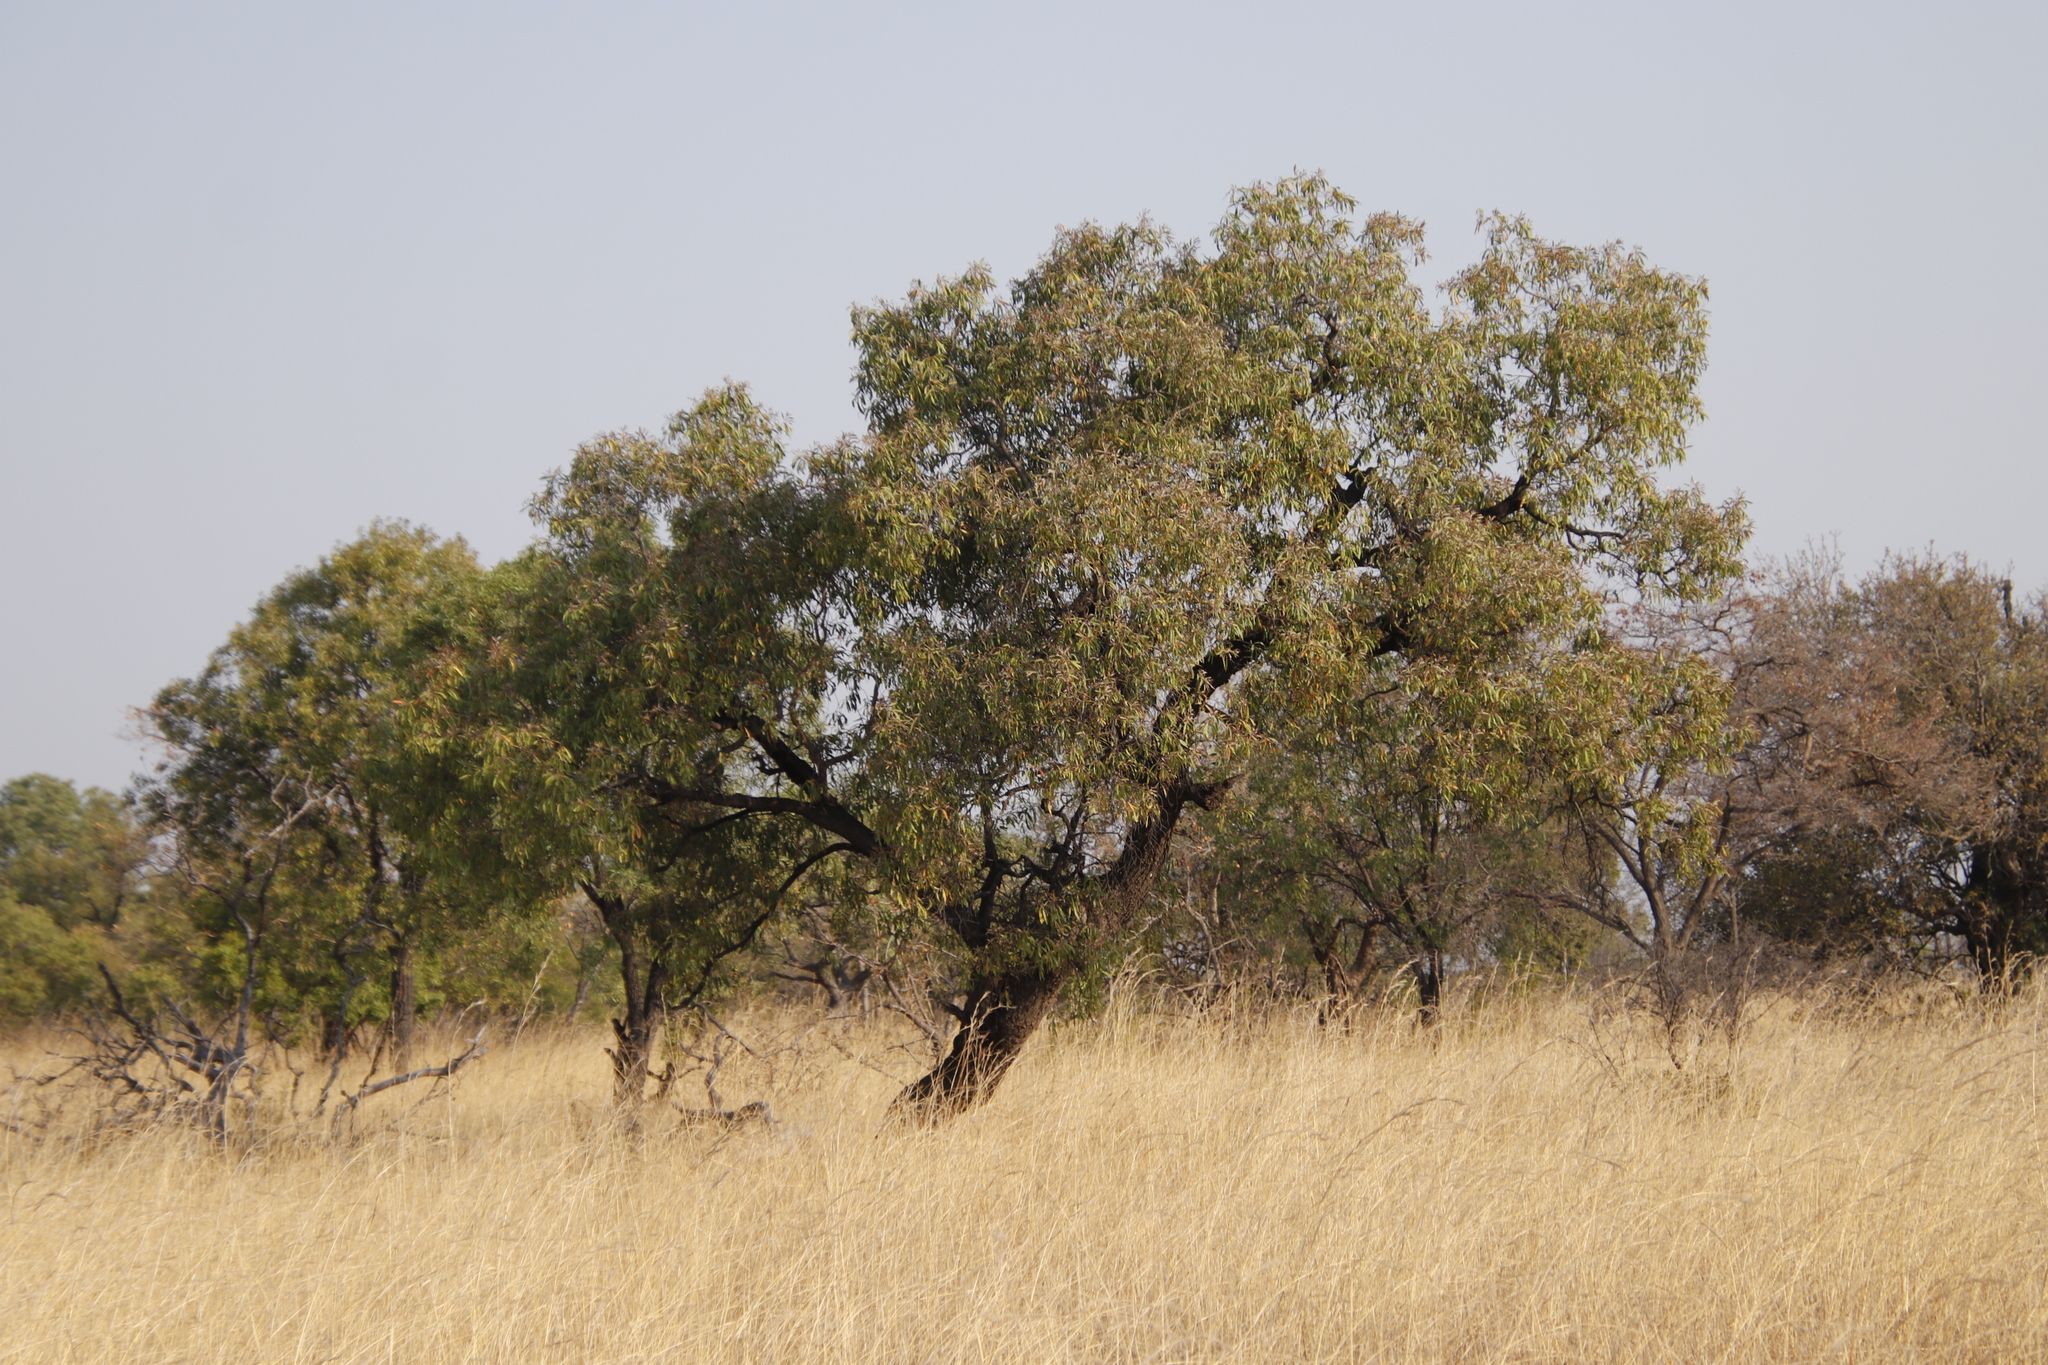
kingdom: Plantae
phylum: Tracheophyta
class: Magnoliopsida
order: Proteales
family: Proteaceae
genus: Faurea
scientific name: Faurea saligna
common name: African bean
